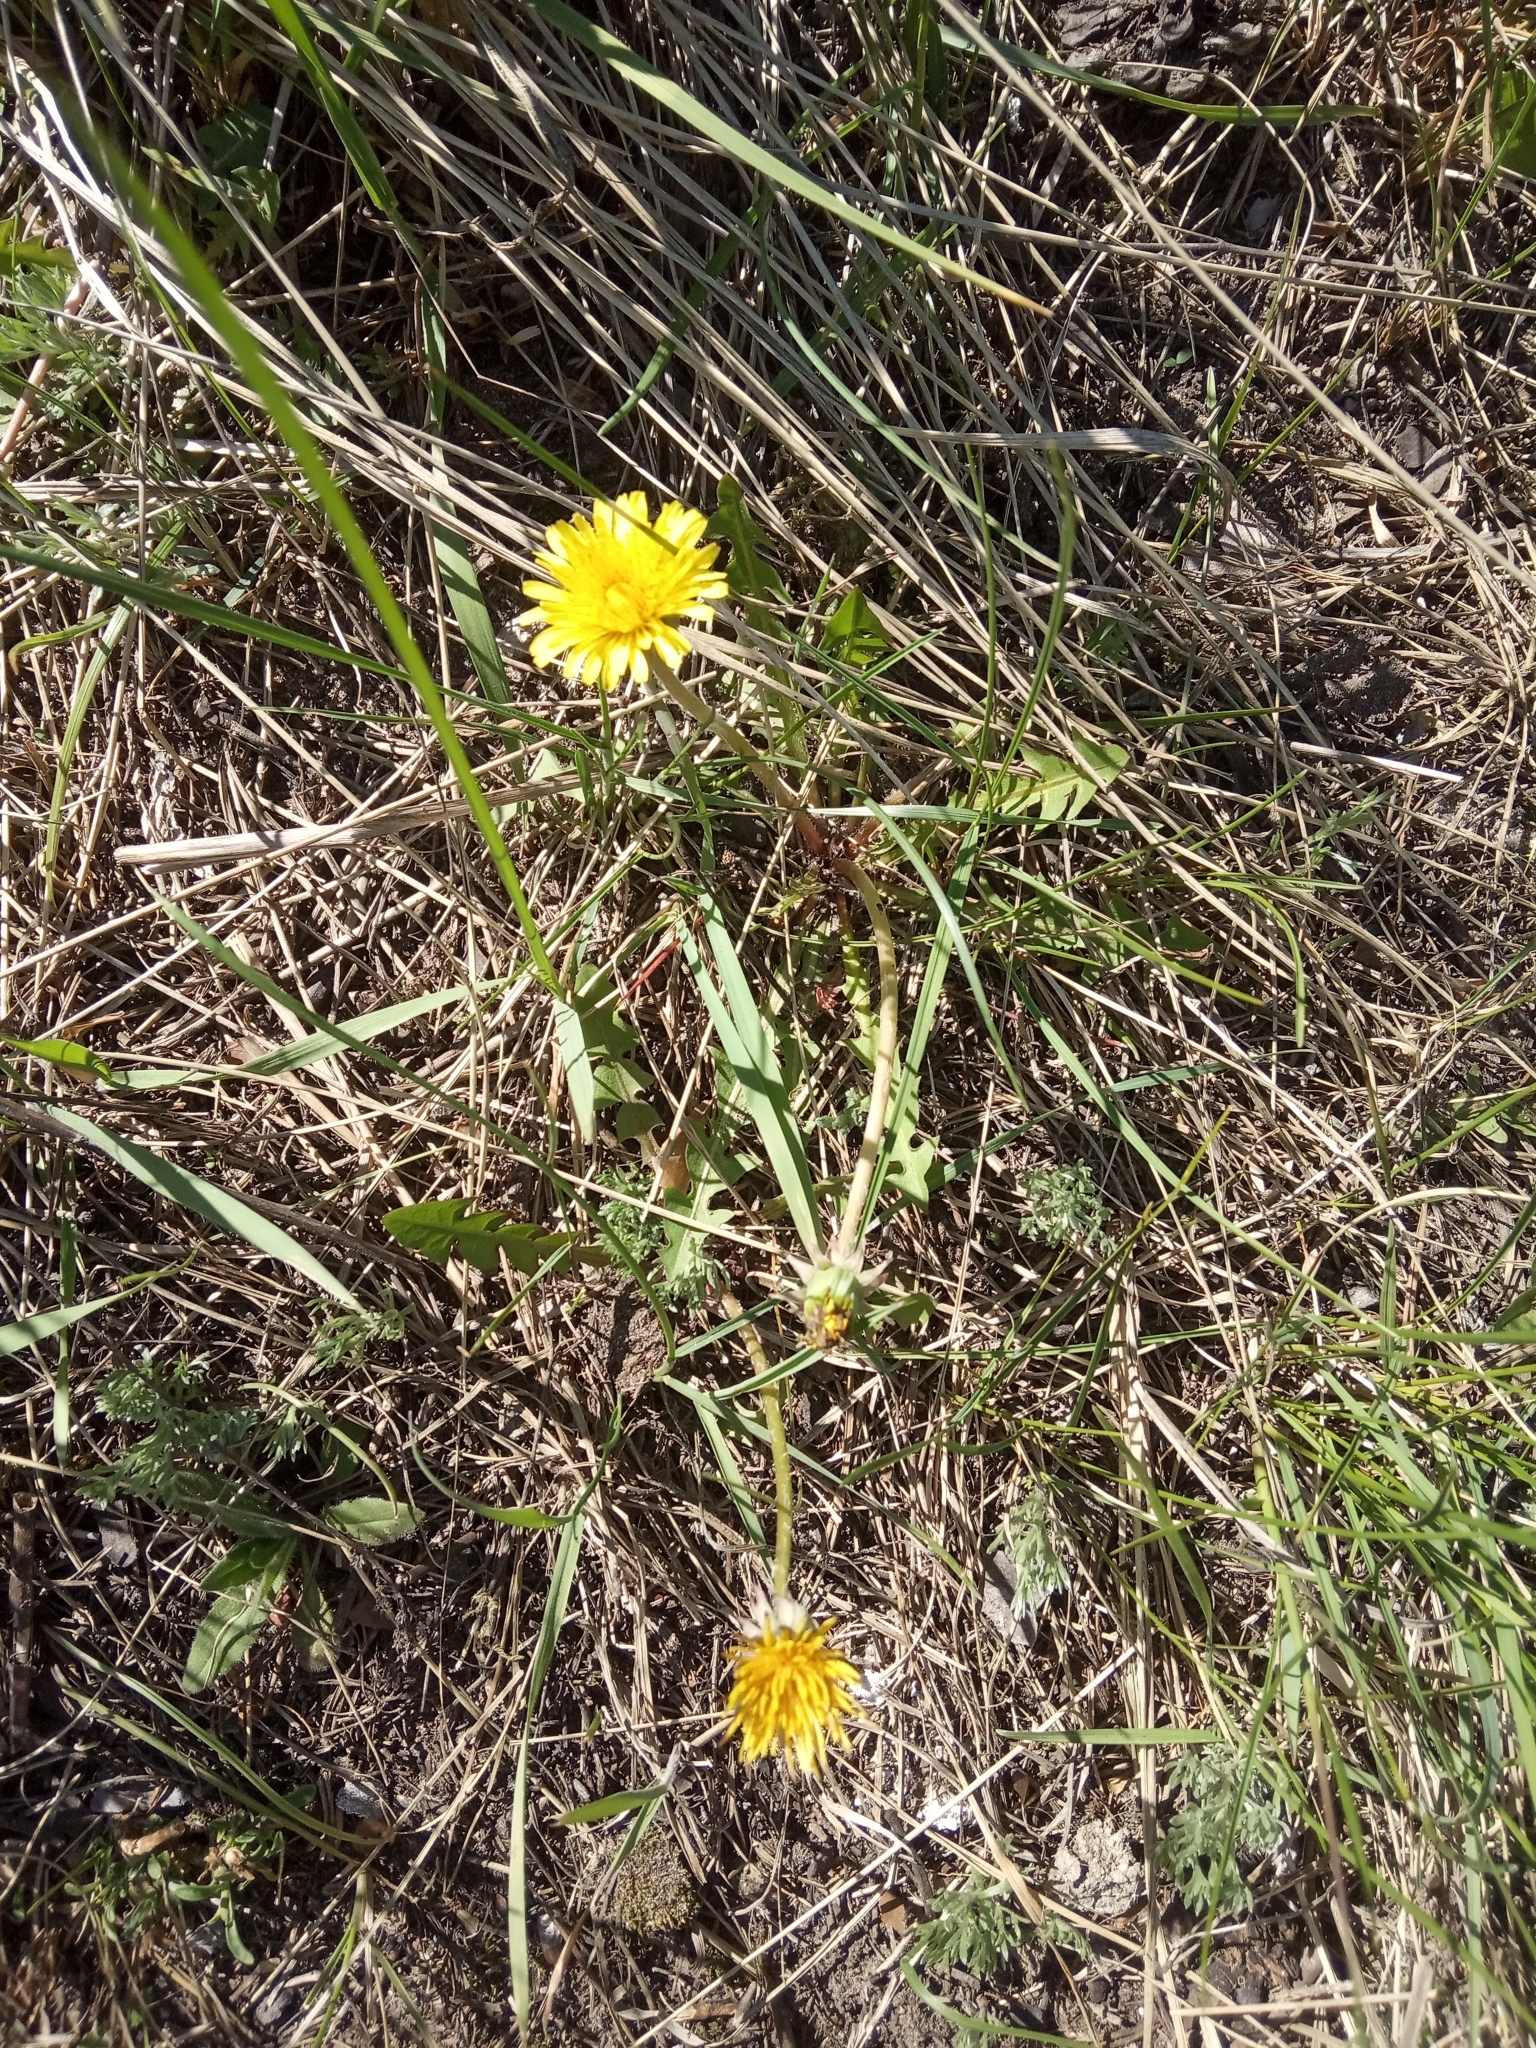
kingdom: Plantae
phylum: Tracheophyta
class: Magnoliopsida
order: Asterales
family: Asteraceae
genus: Taraxacum
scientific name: Taraxacum officinale
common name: Common dandelion
